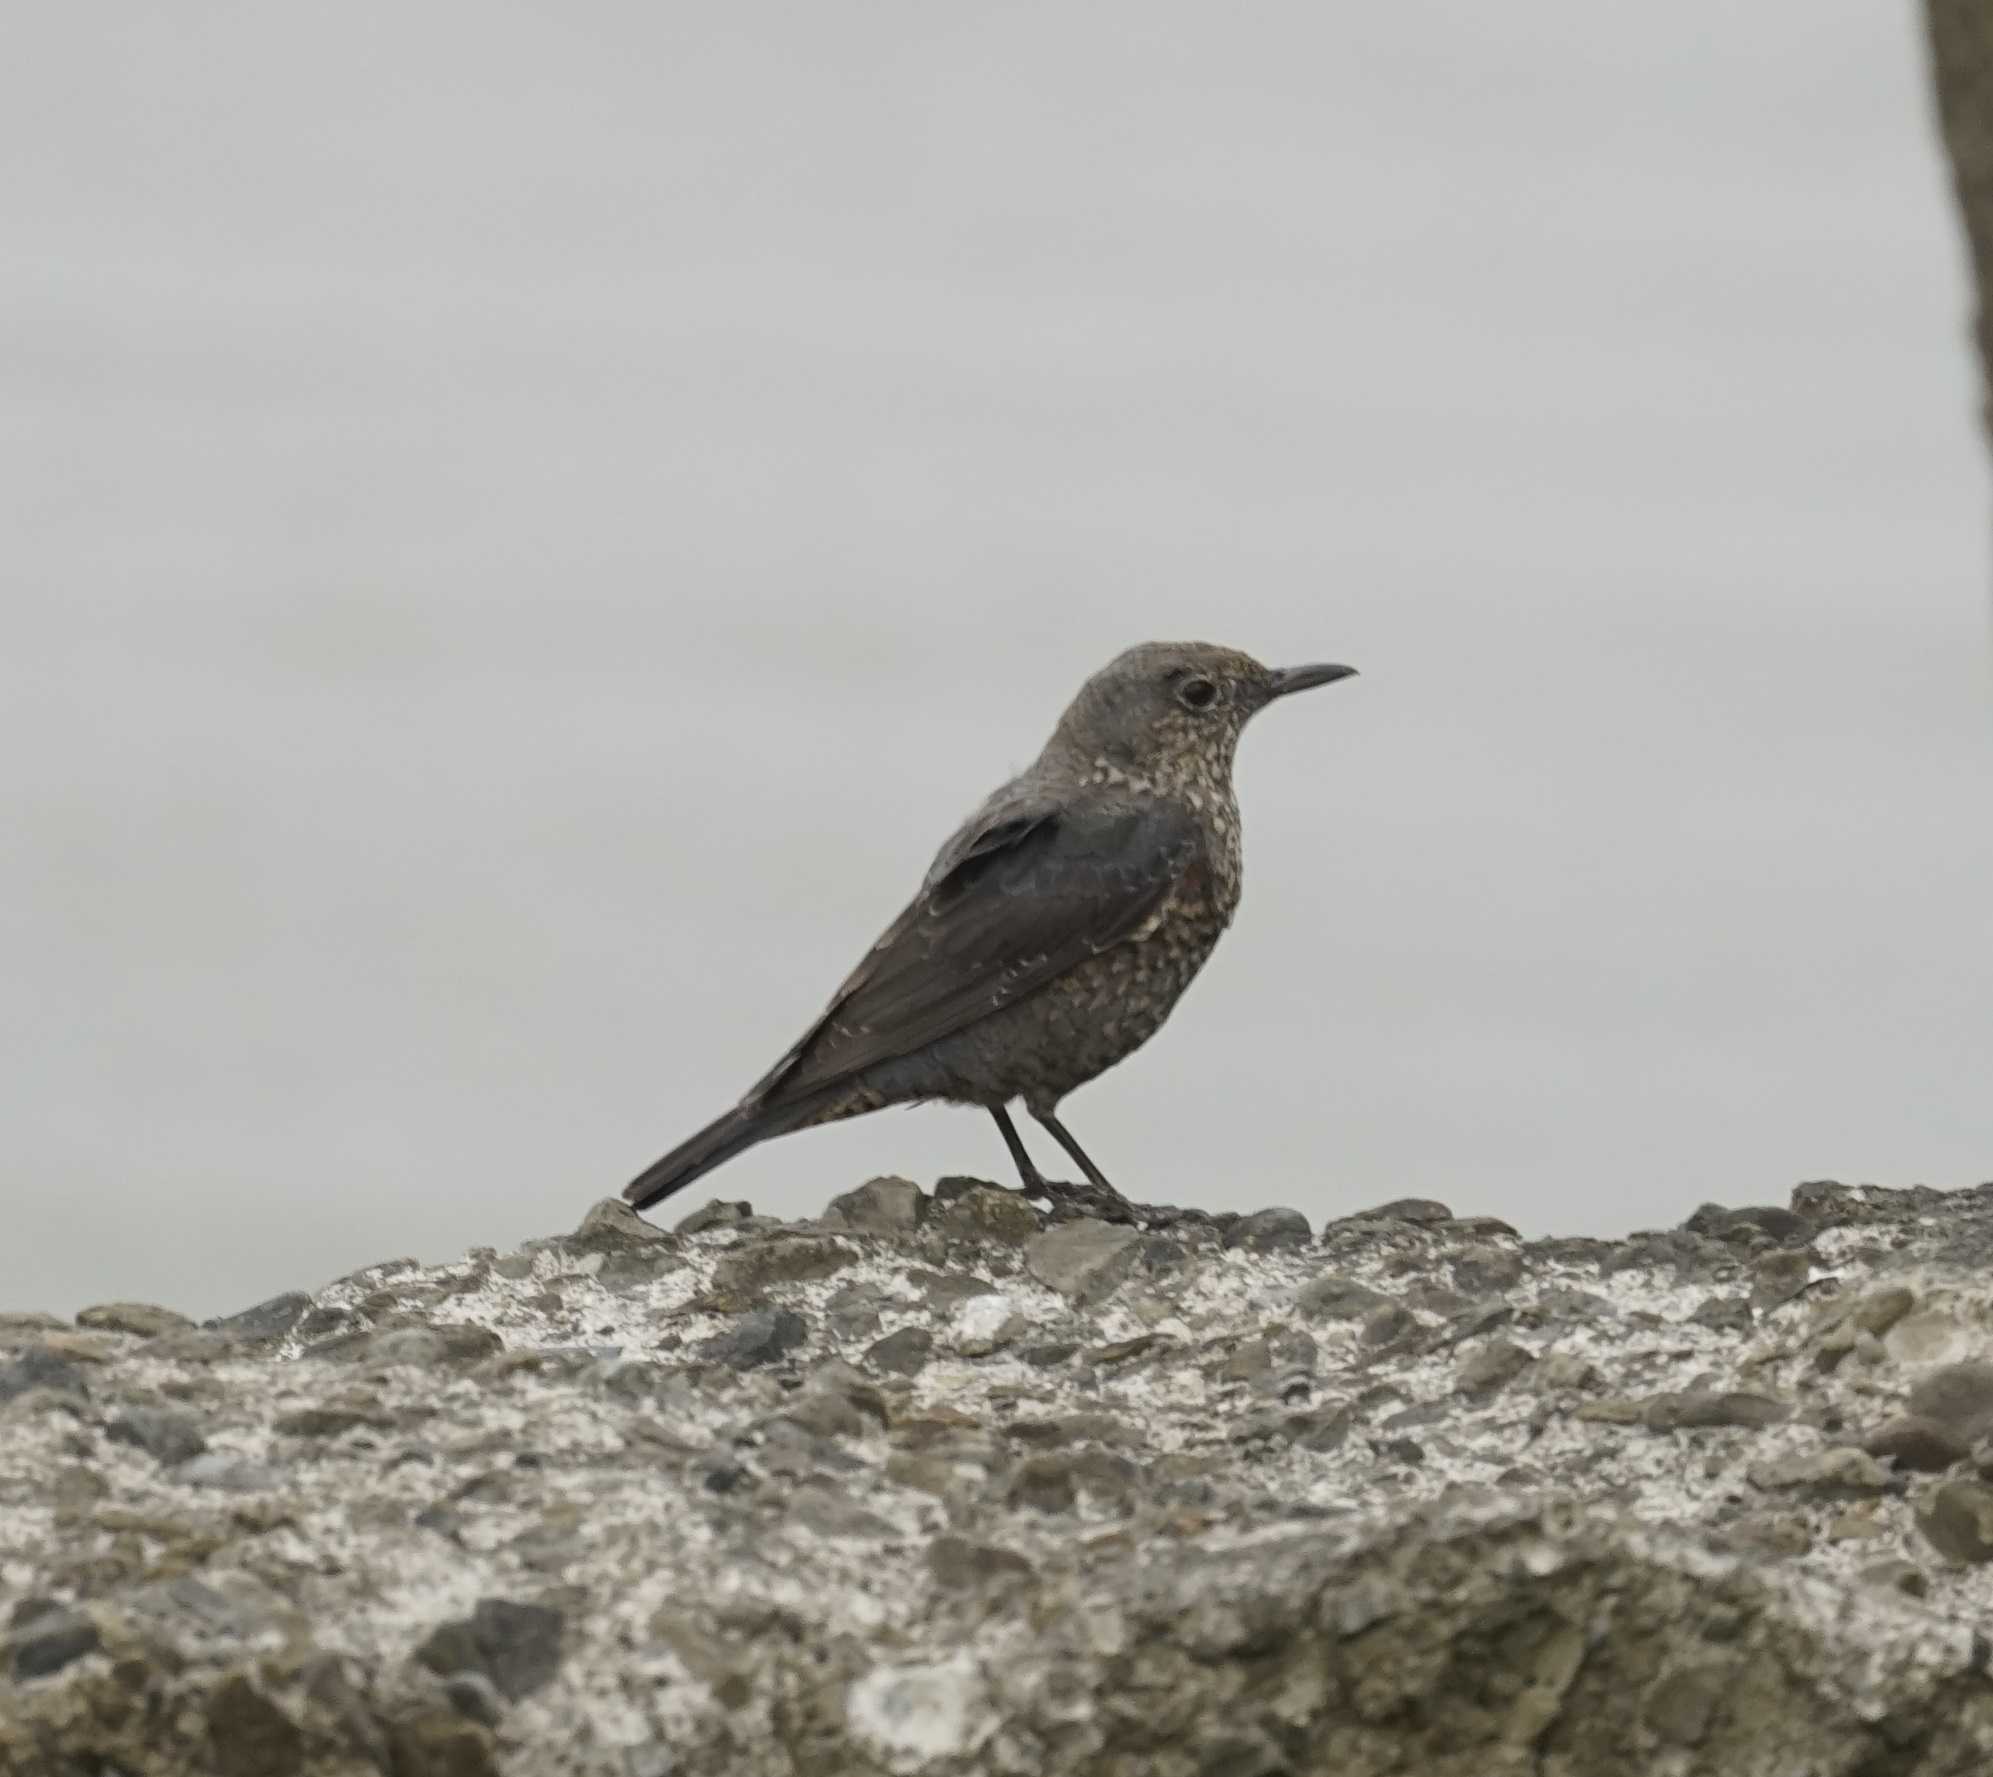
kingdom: Animalia
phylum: Chordata
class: Aves
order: Passeriformes
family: Muscicapidae
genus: Monticola
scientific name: Monticola solitarius
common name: Blue rock thrush
